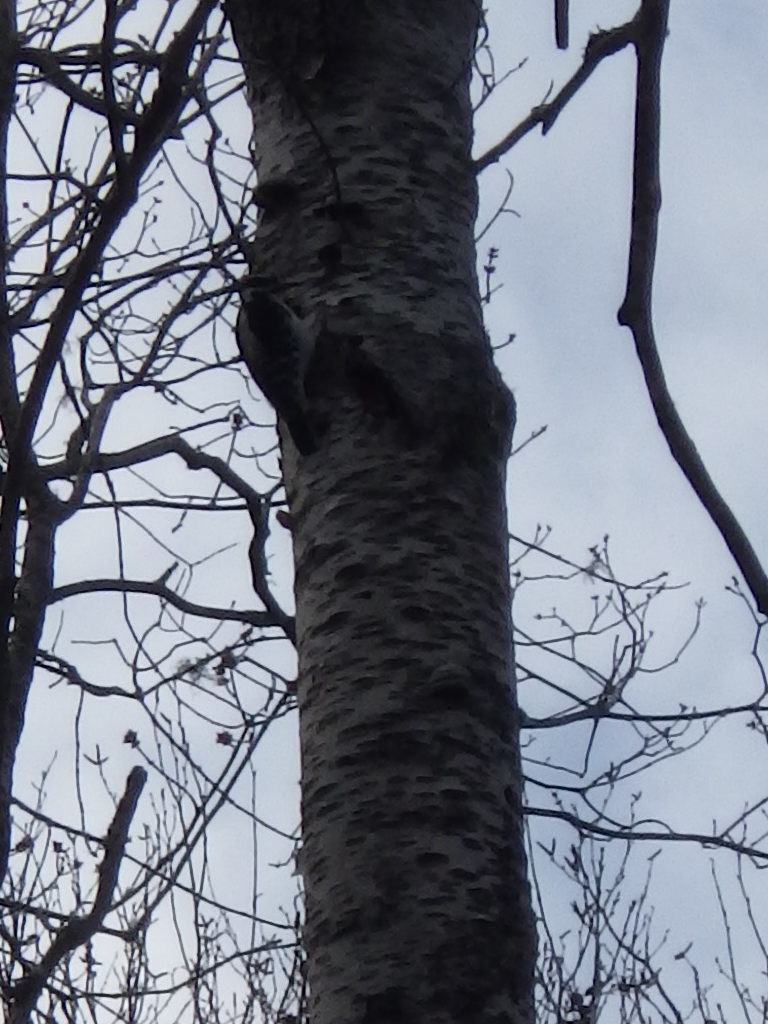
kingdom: Animalia
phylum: Chordata
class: Aves
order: Piciformes
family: Picidae
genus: Leuconotopicus
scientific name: Leuconotopicus villosus
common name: Hairy woodpecker
